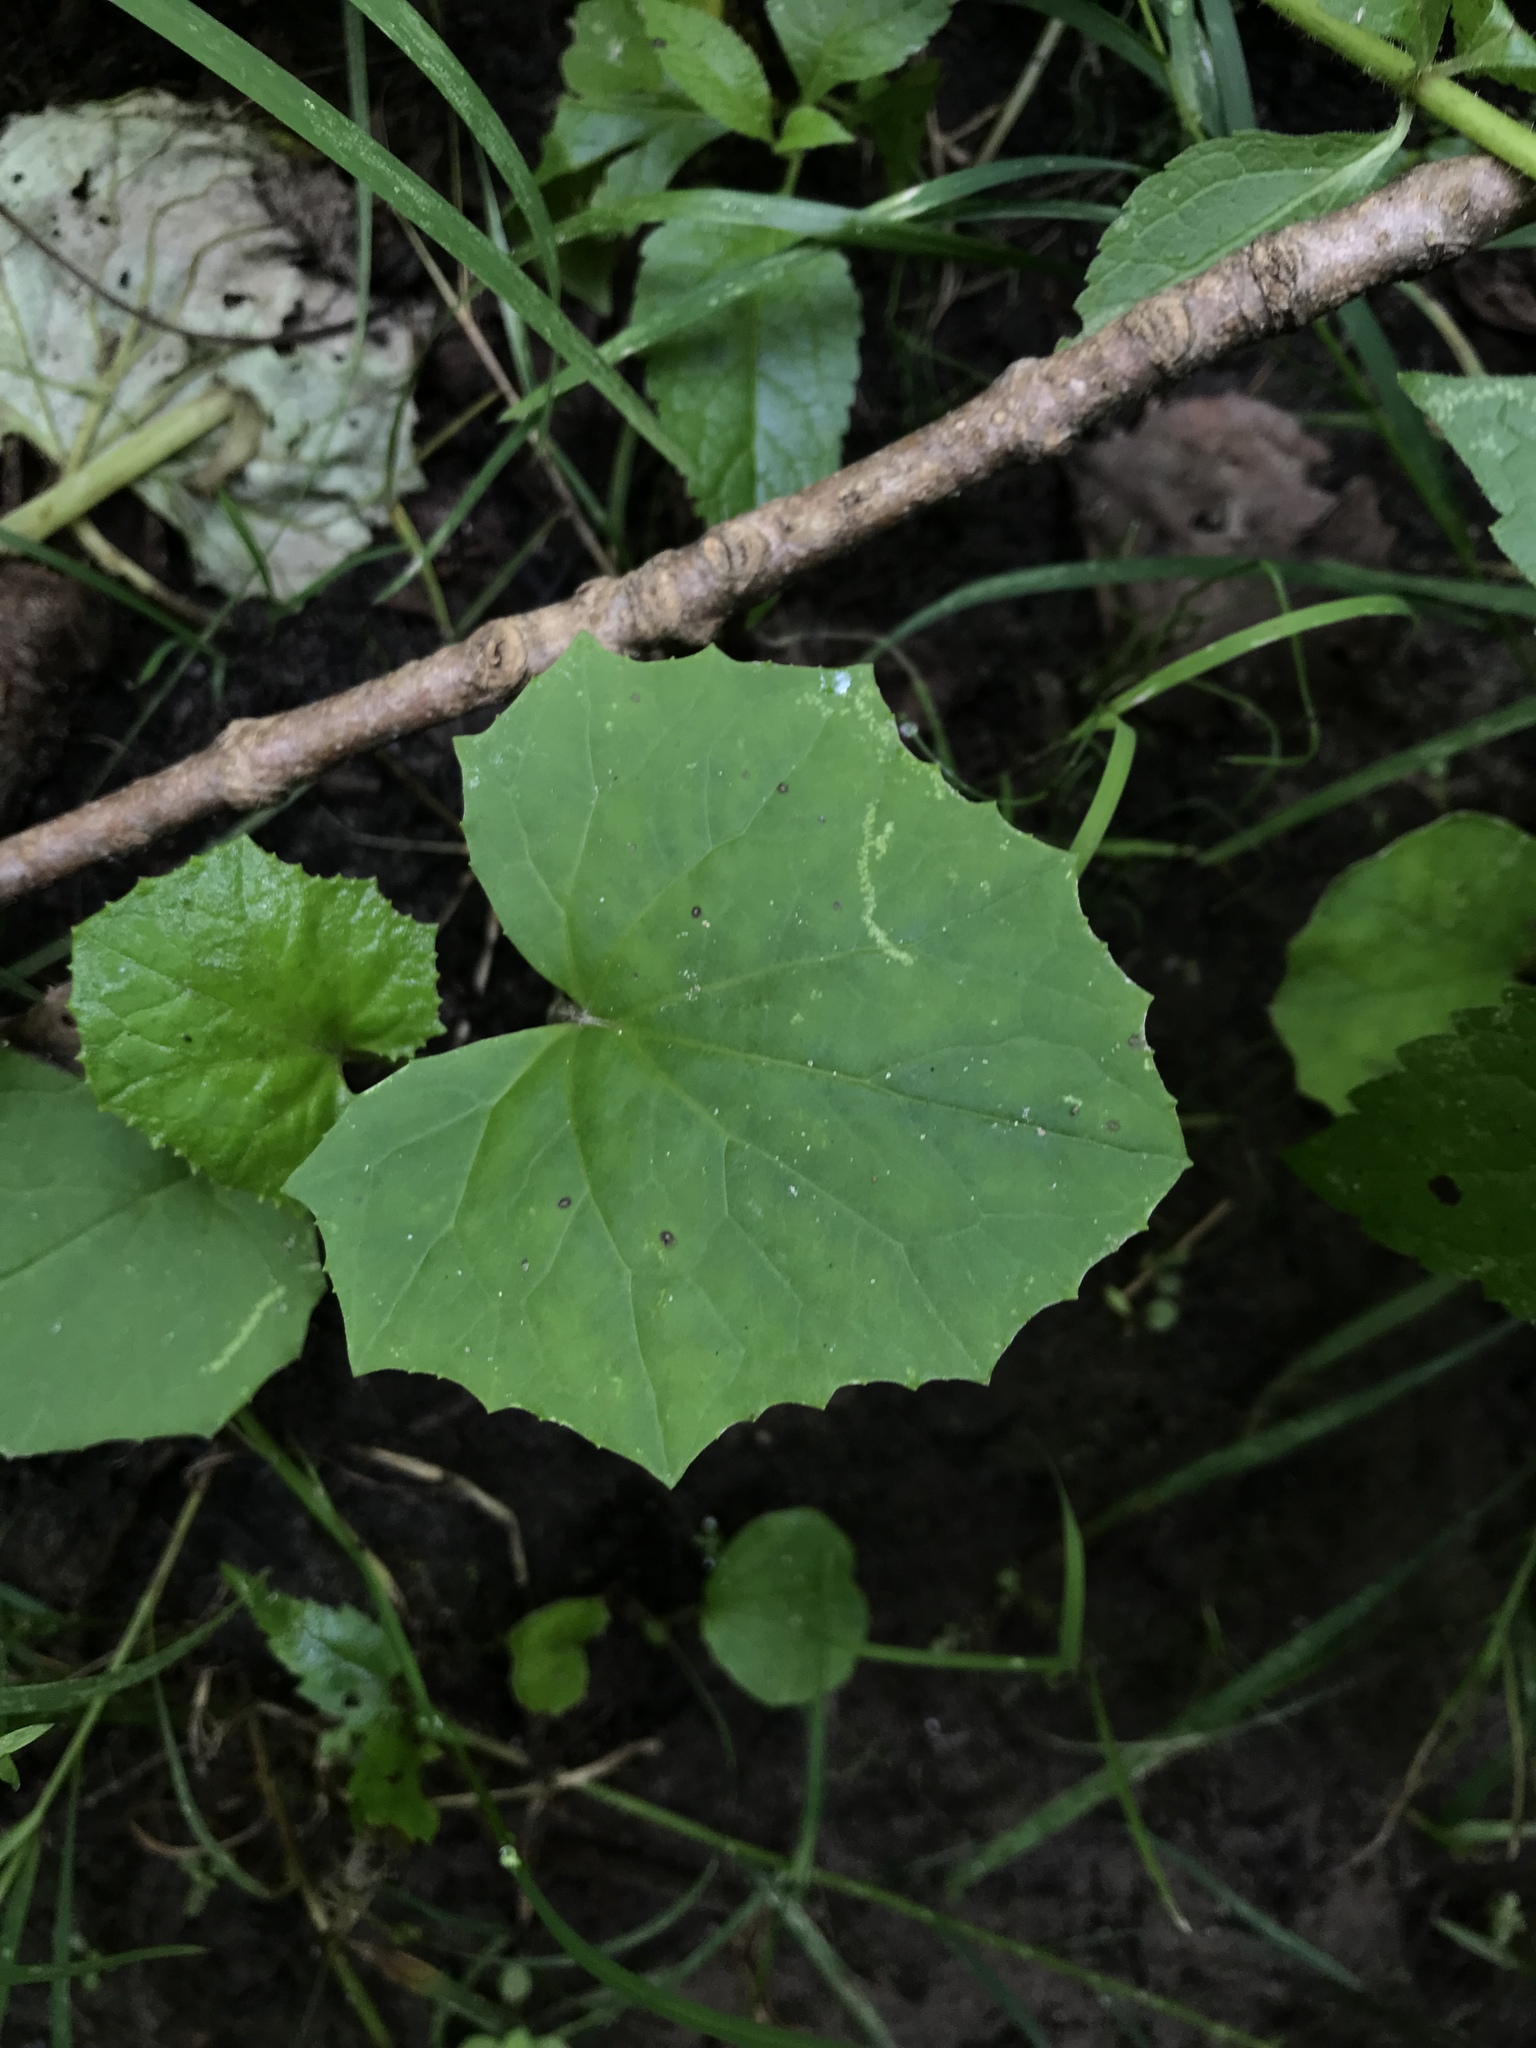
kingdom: Plantae
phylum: Tracheophyta
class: Magnoliopsida
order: Asterales
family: Asteraceae
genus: Tussilago
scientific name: Tussilago farfara
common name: Coltsfoot
